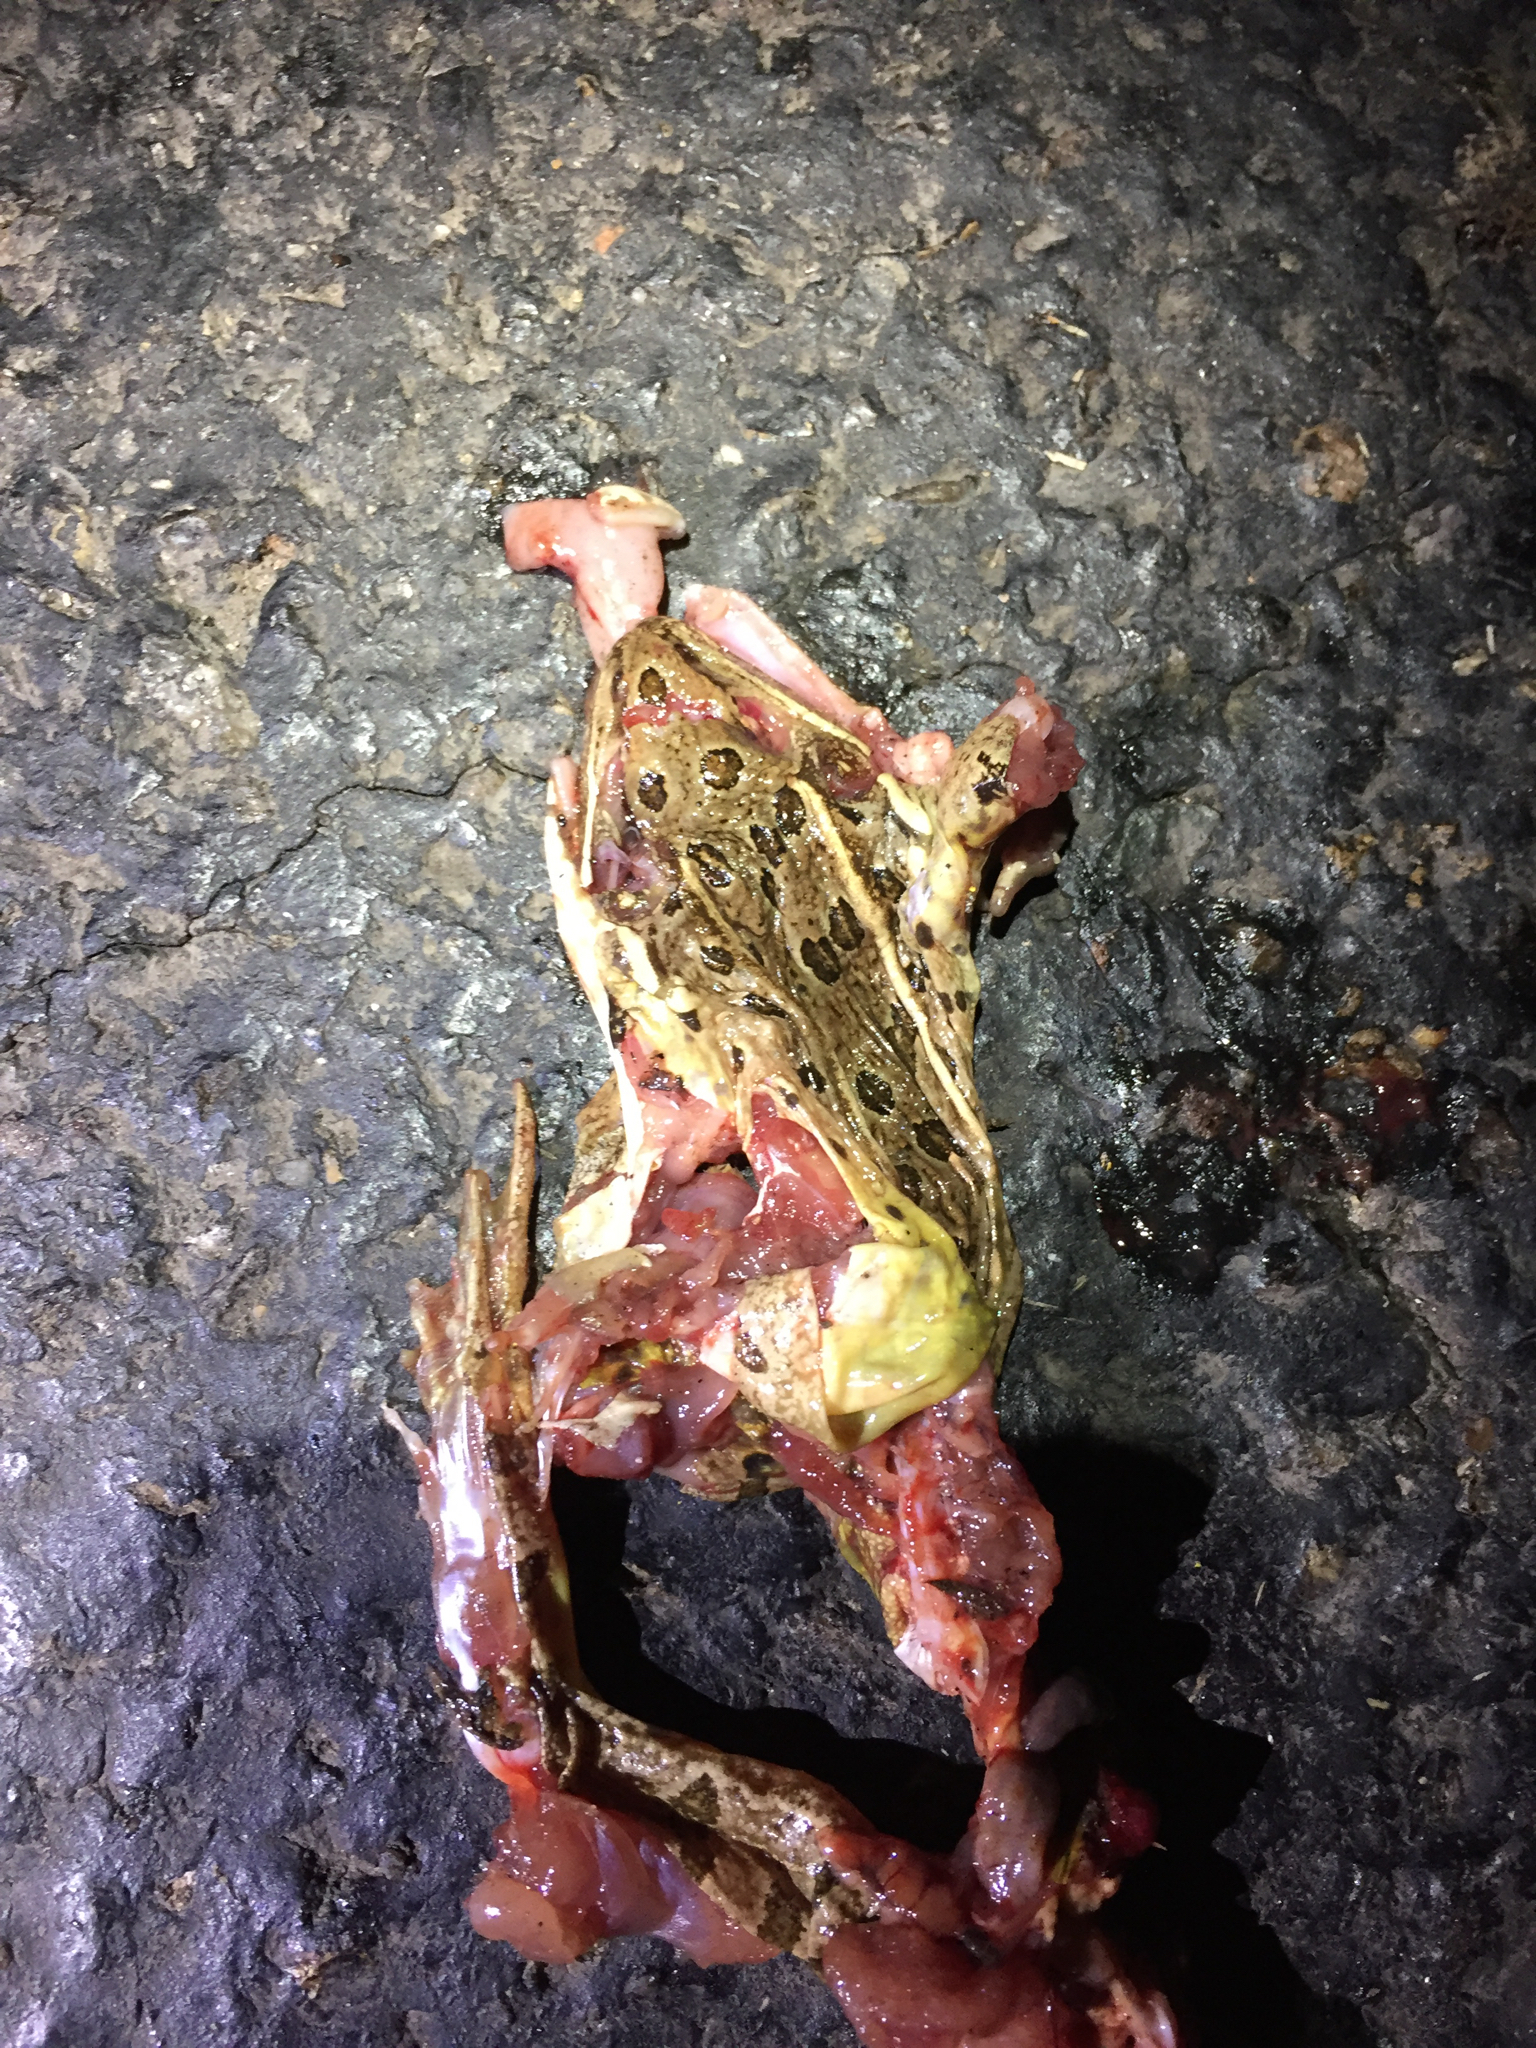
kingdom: Animalia
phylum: Chordata
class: Amphibia
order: Anura
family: Ranidae
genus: Lithobates
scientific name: Lithobates blairi
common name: Plains leopard frog
